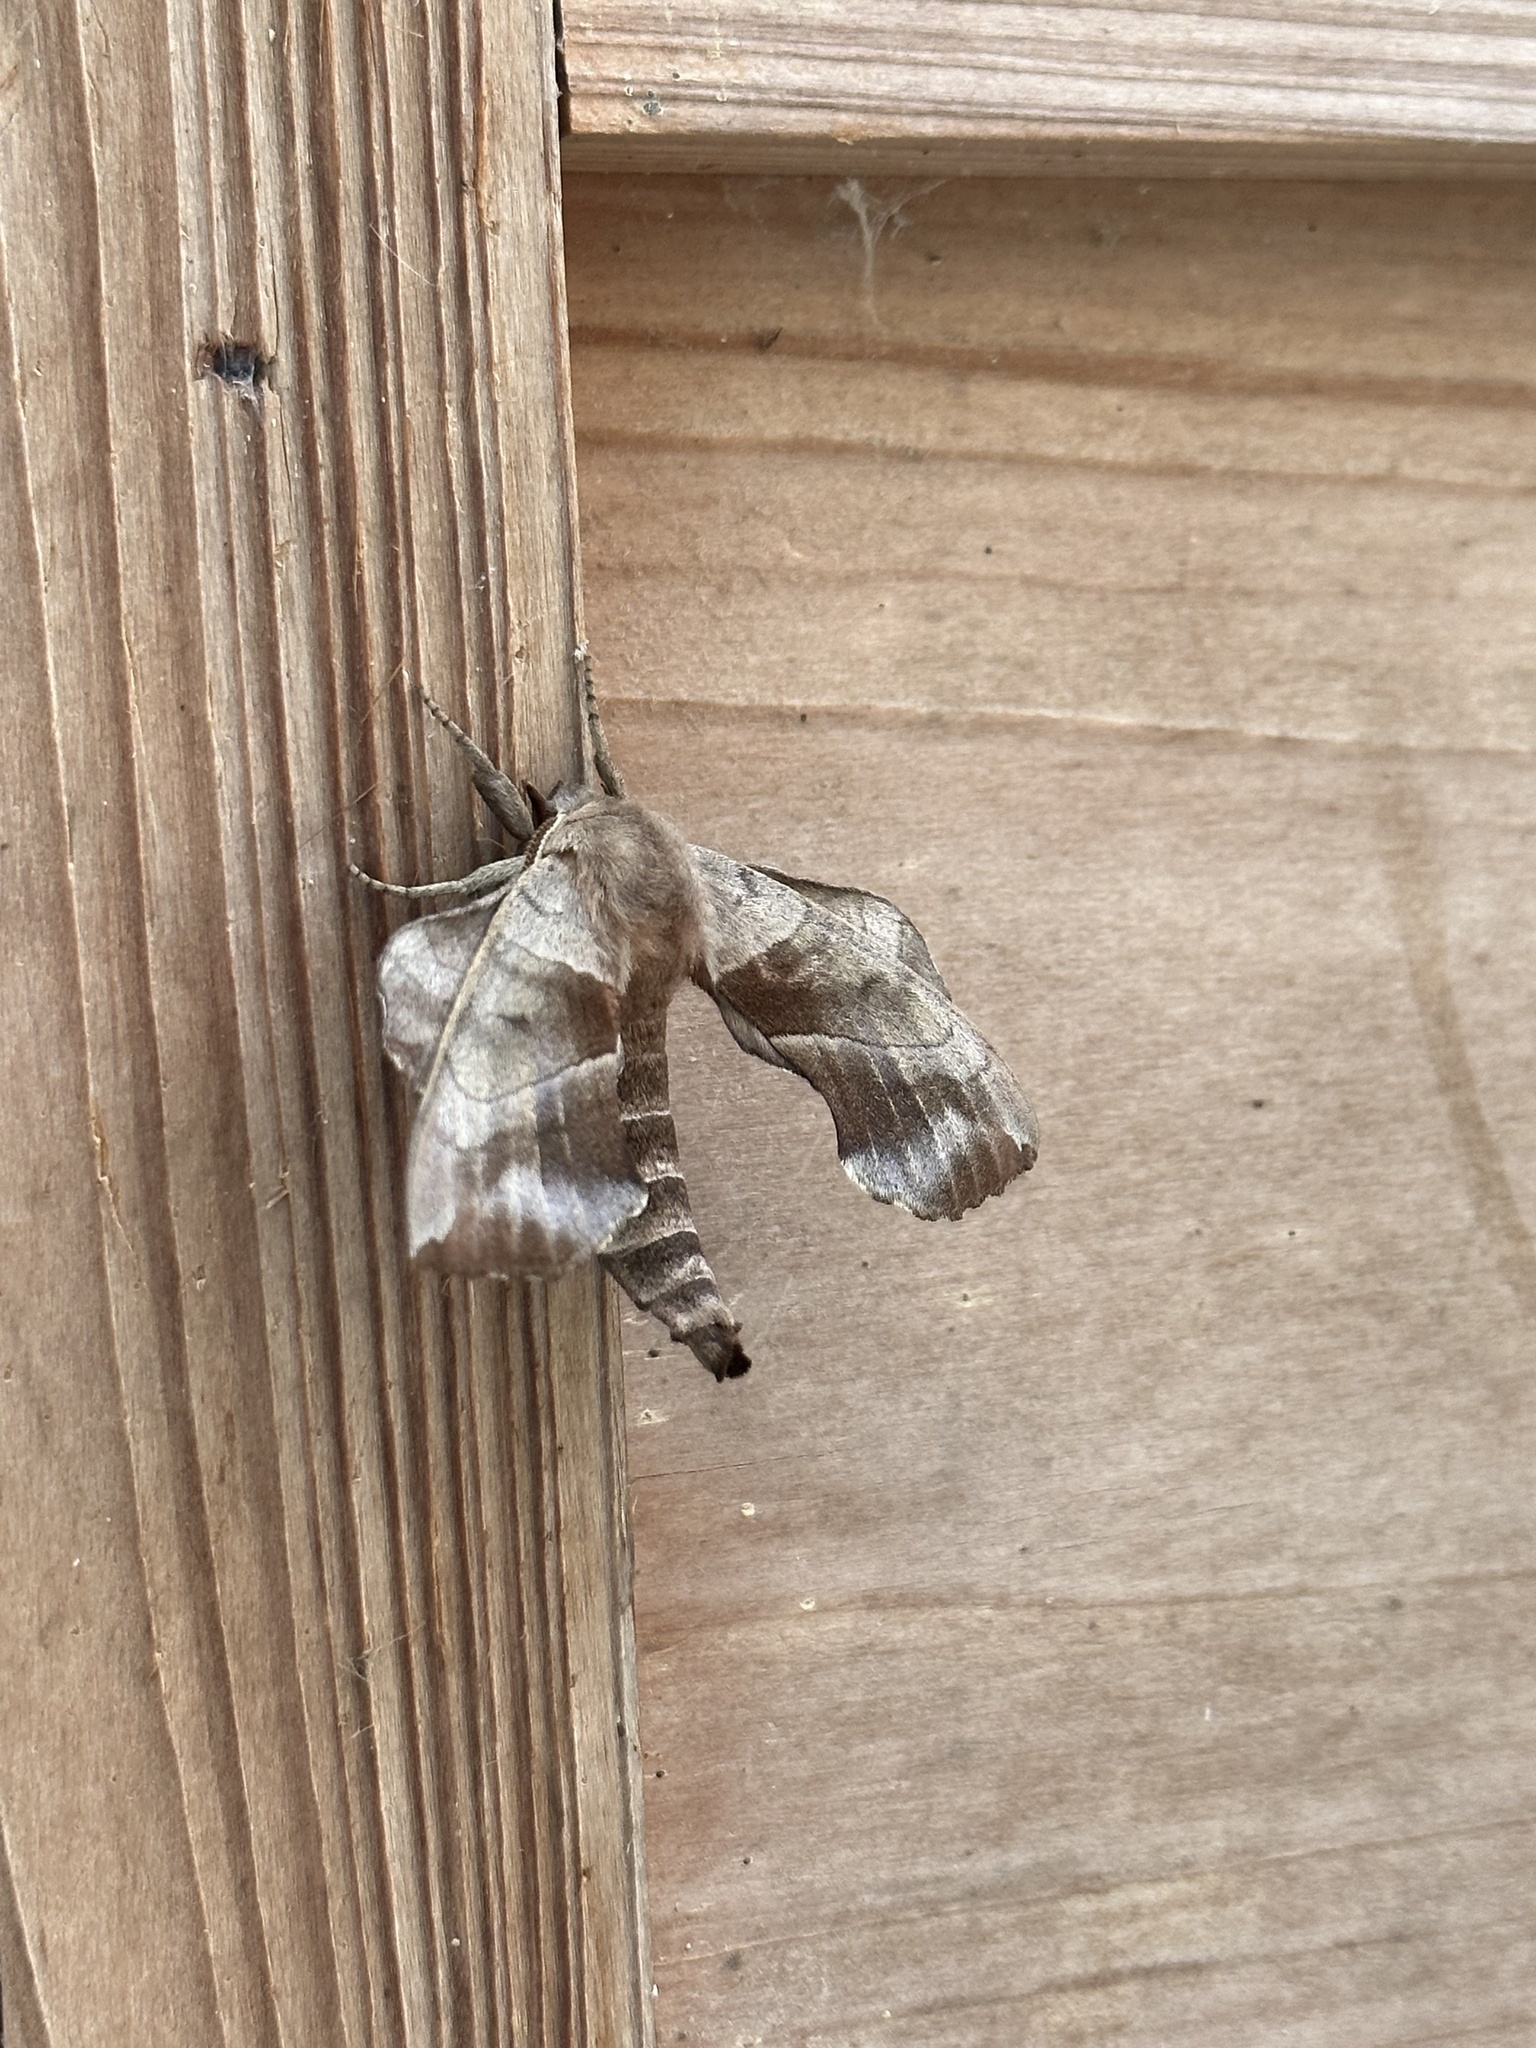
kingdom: Animalia
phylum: Arthropoda
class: Insecta
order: Lepidoptera
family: Sphingidae
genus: Amorpha
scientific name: Amorpha juglandis
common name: Walnut sphinx
